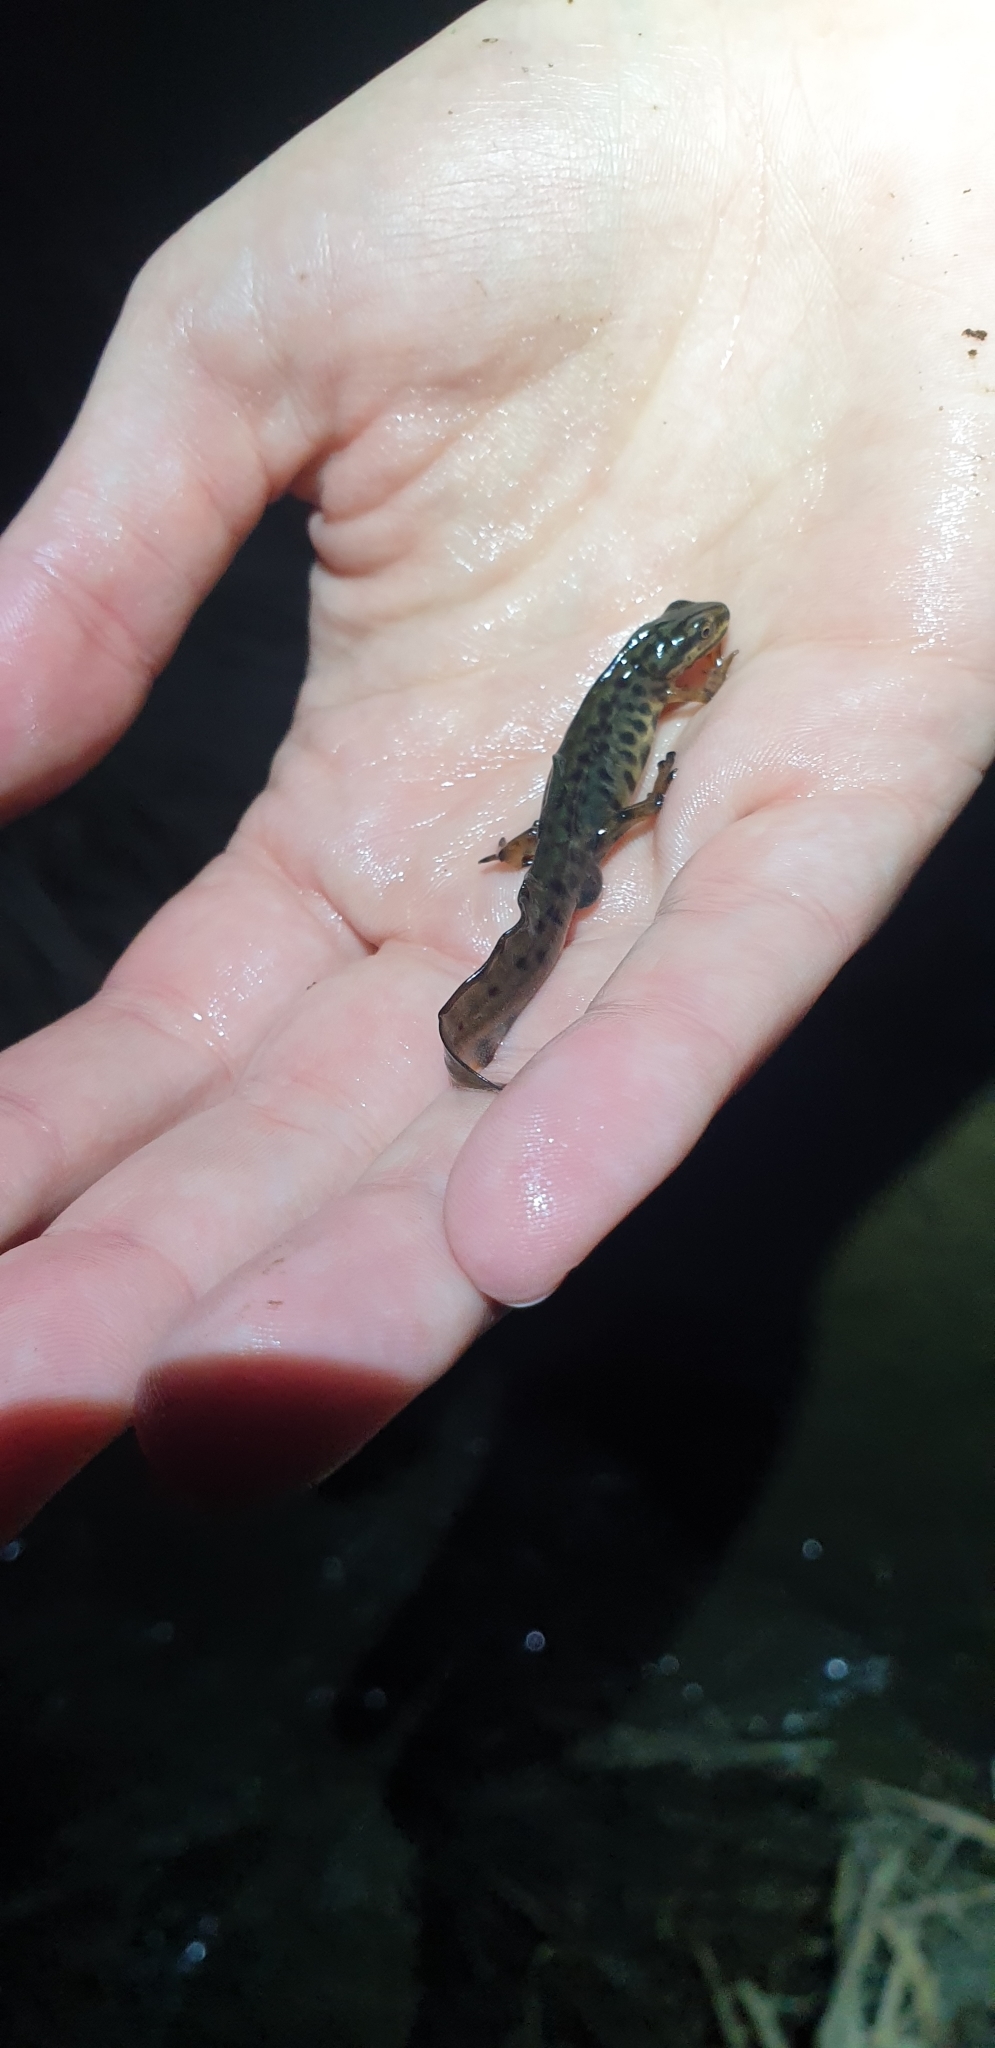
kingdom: Animalia
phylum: Chordata
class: Amphibia
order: Caudata
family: Salamandridae
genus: Lissotriton
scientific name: Lissotriton vulgaris
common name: Smooth newt
